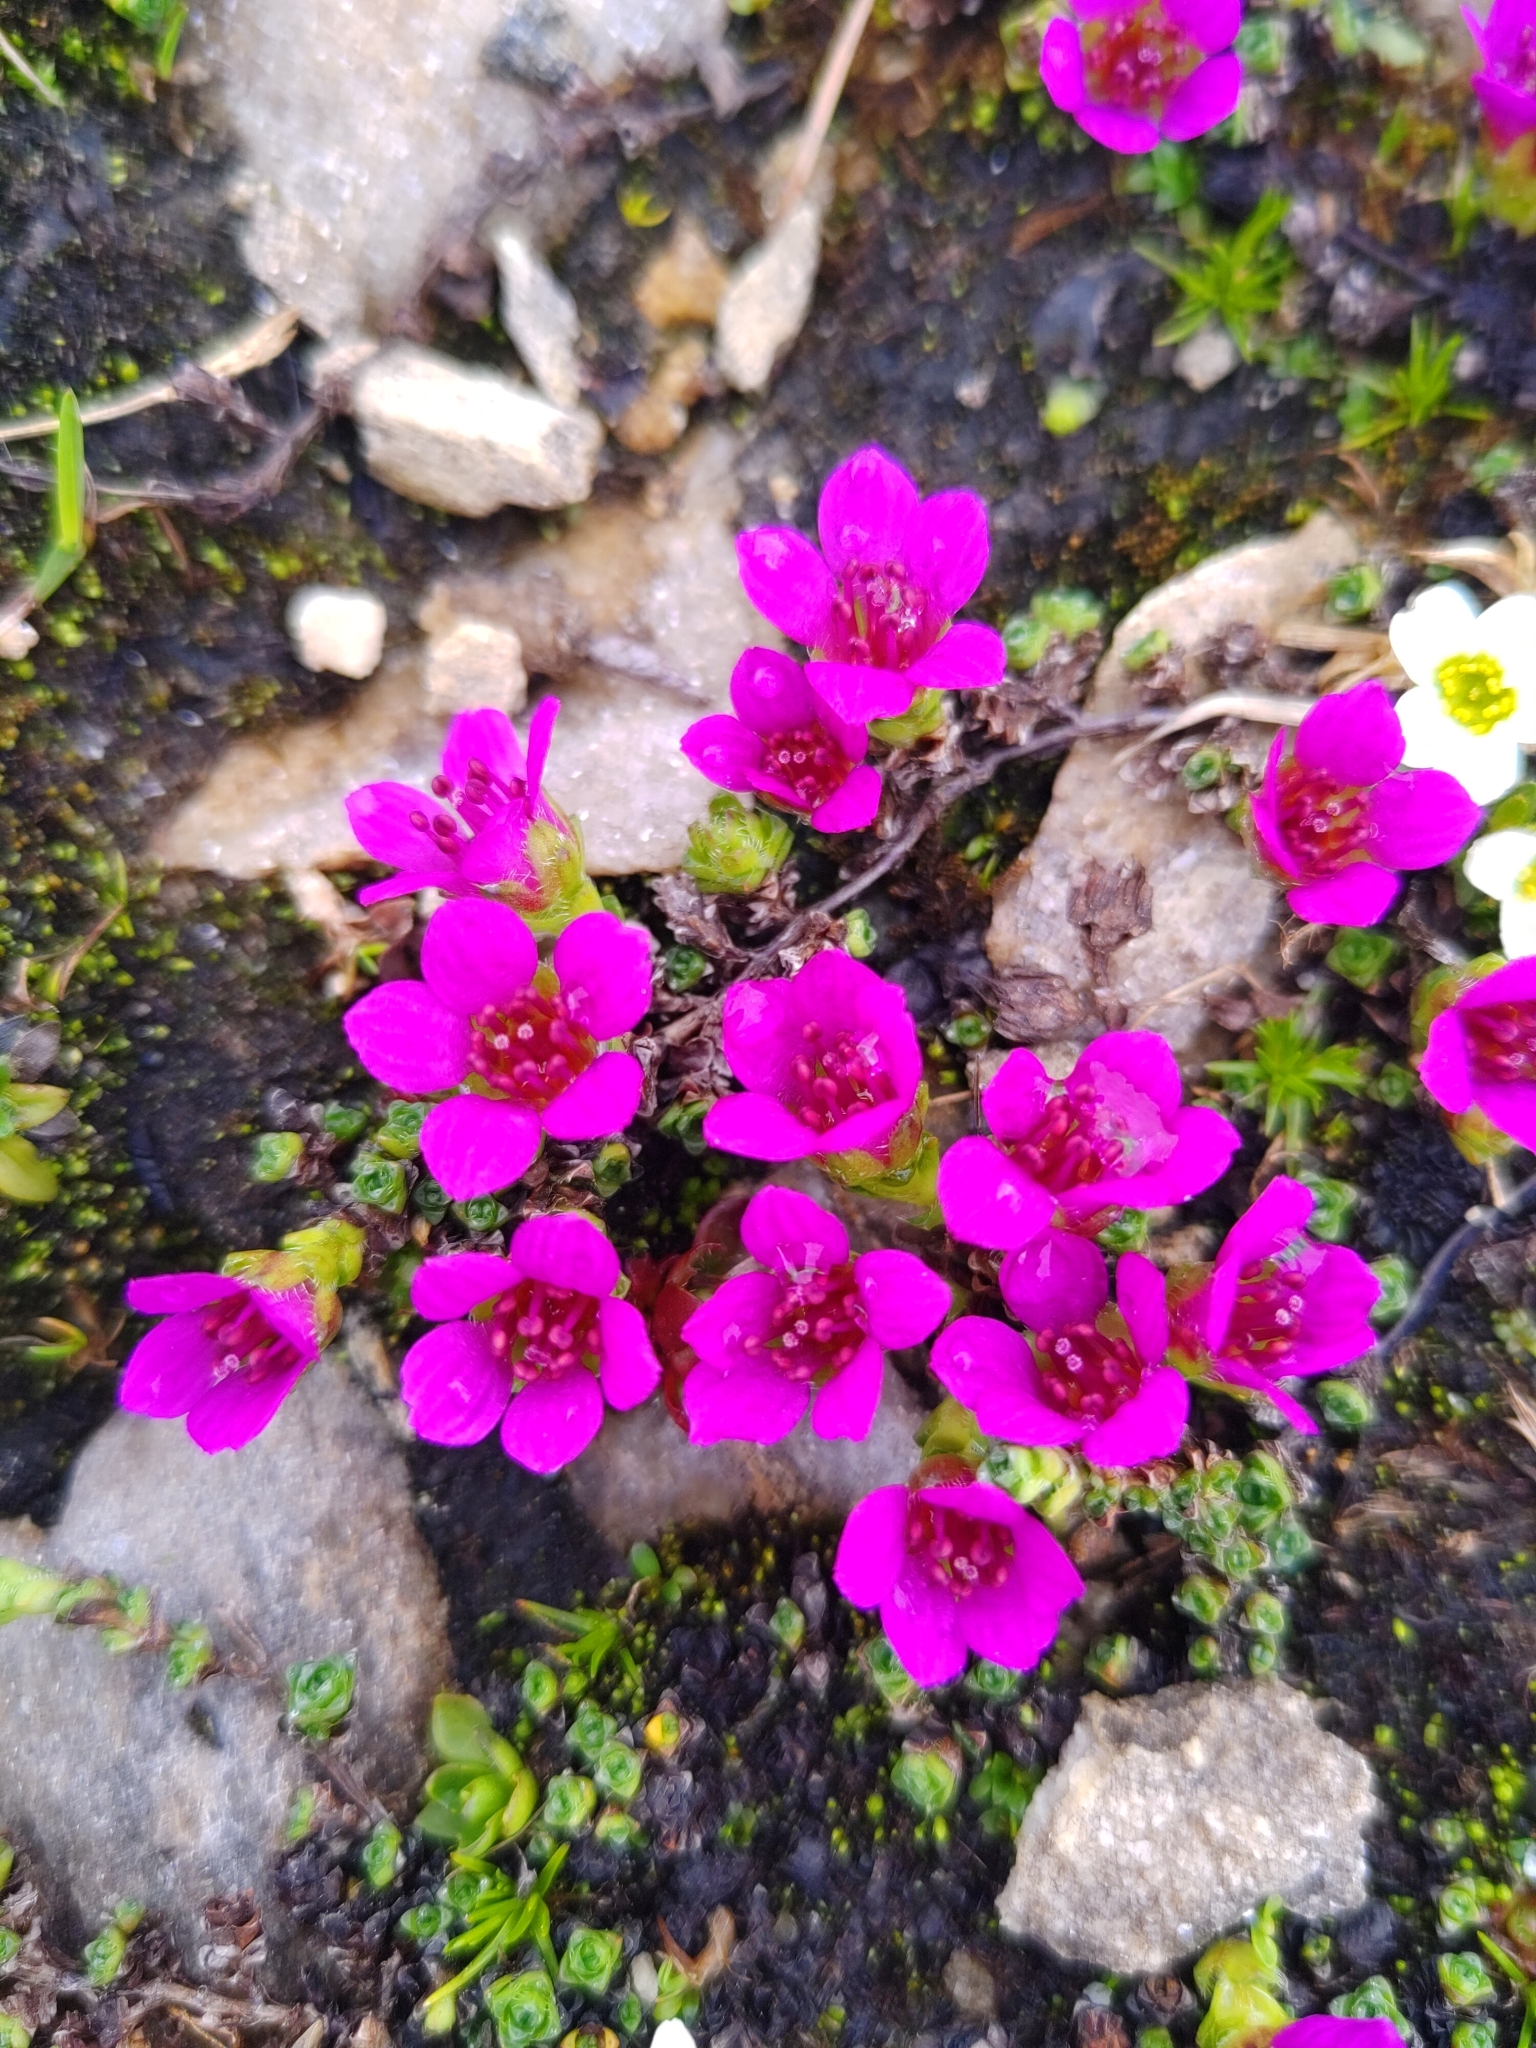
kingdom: Plantae
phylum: Tracheophyta
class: Magnoliopsida
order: Saxifragales
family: Saxifragaceae
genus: Saxifraga
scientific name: Saxifraga oppositifolia
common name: Purple saxifrage
